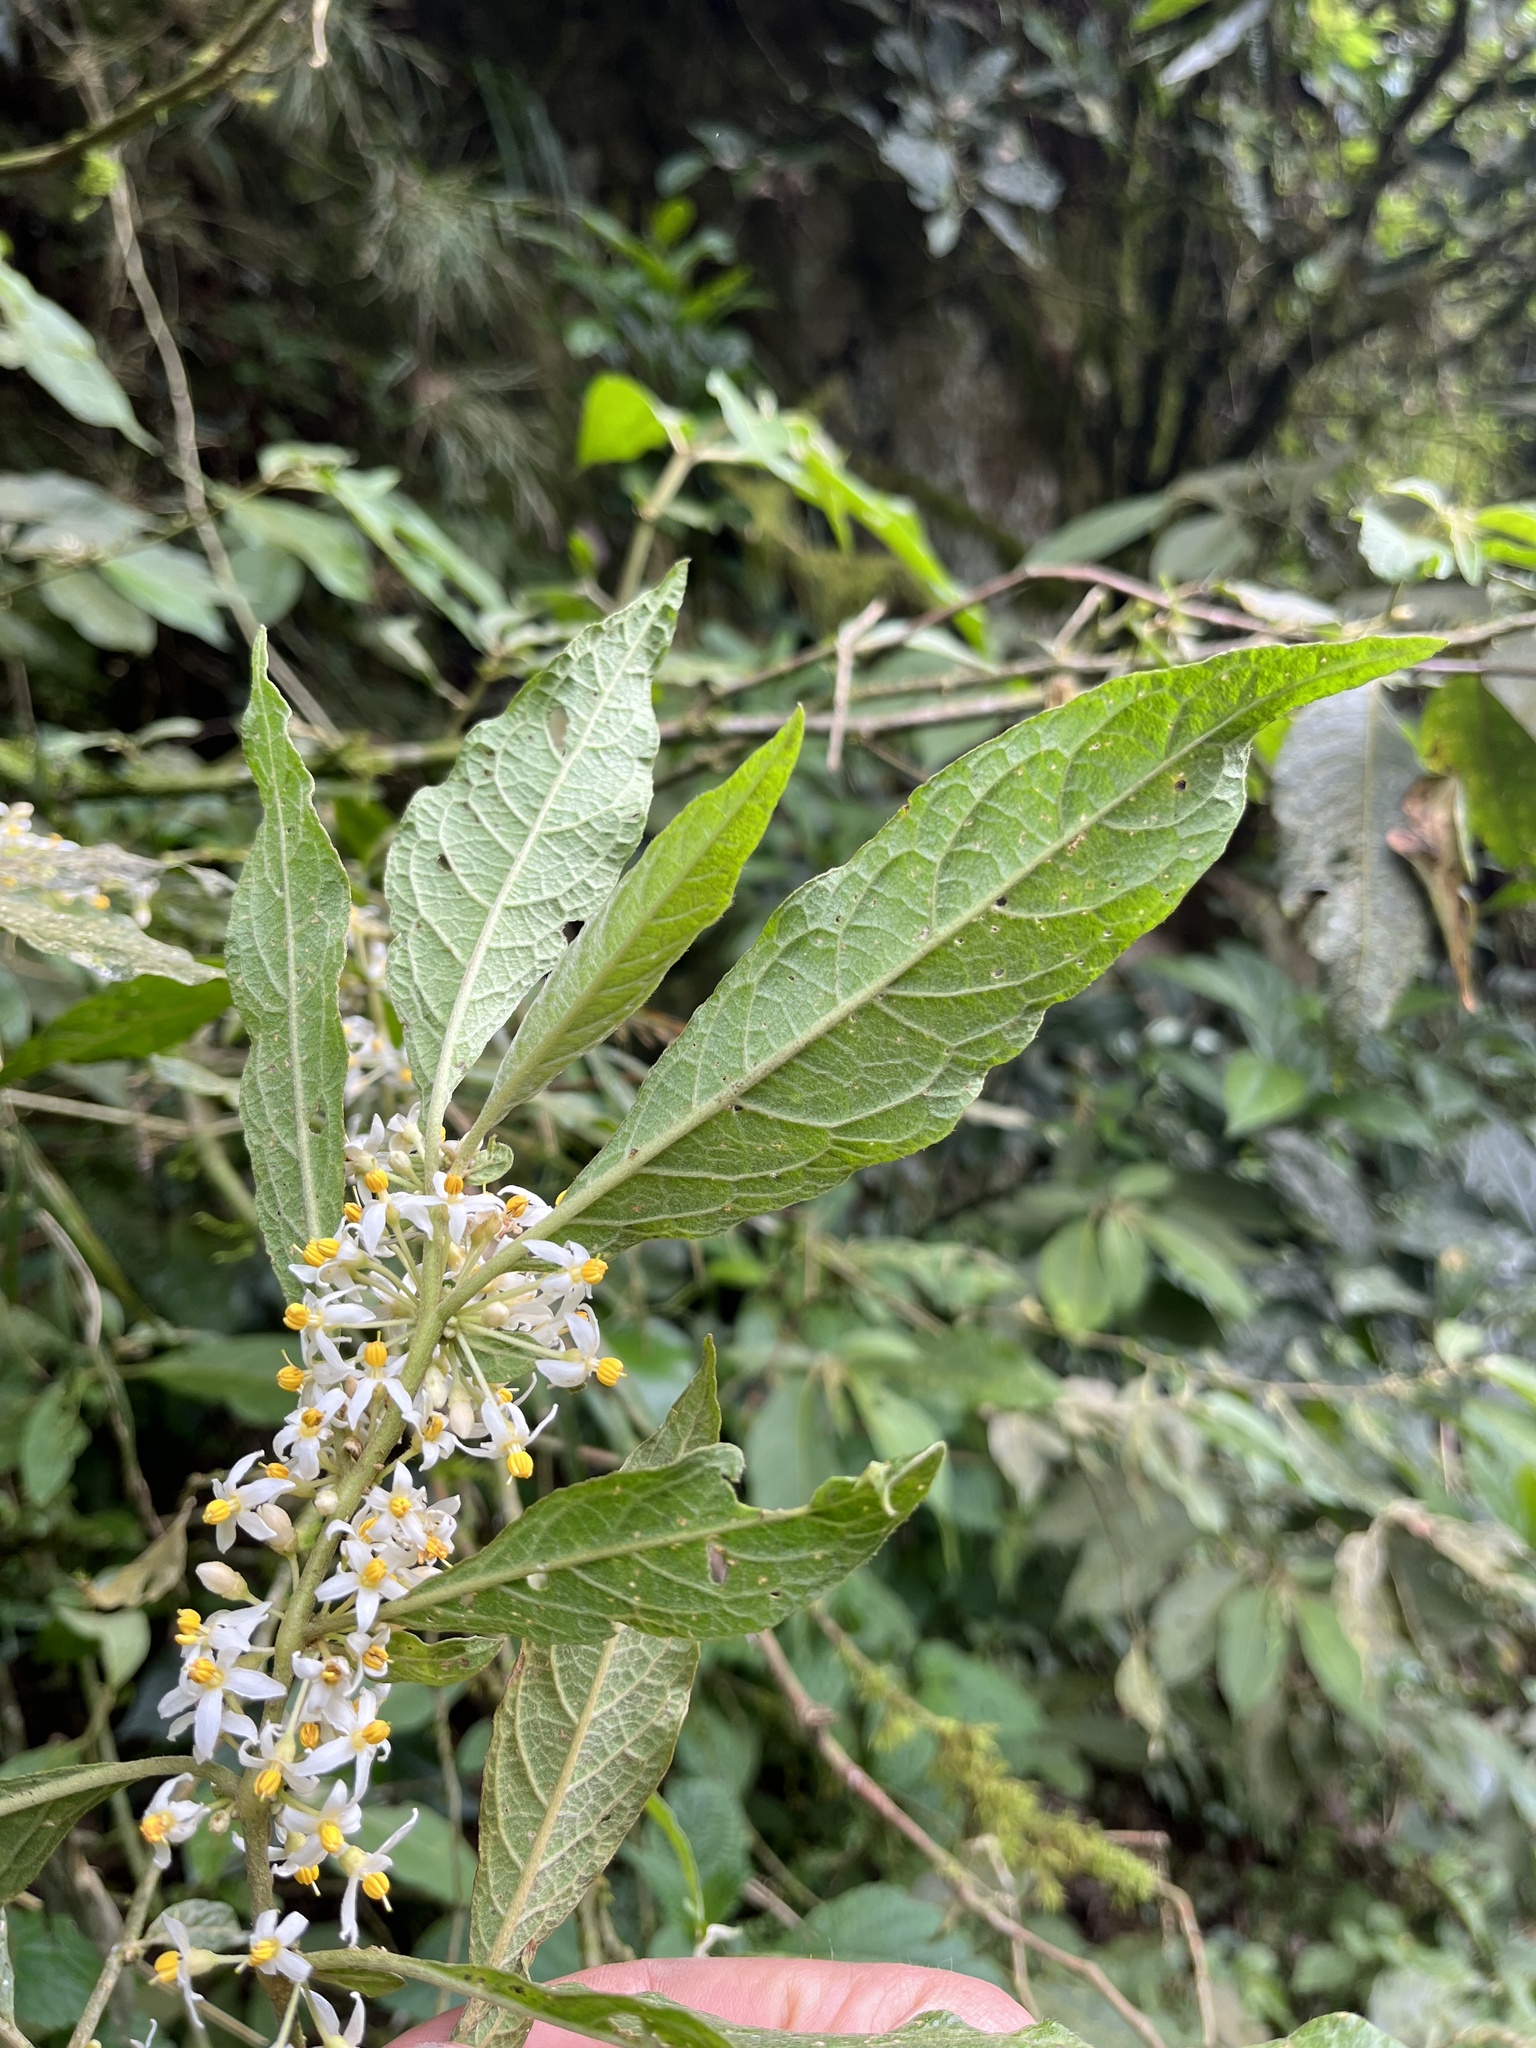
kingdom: Plantae
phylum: Tracheophyta
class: Magnoliopsida
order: Solanales
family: Solanaceae
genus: Lycianthes
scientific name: Lycianthes radiata
